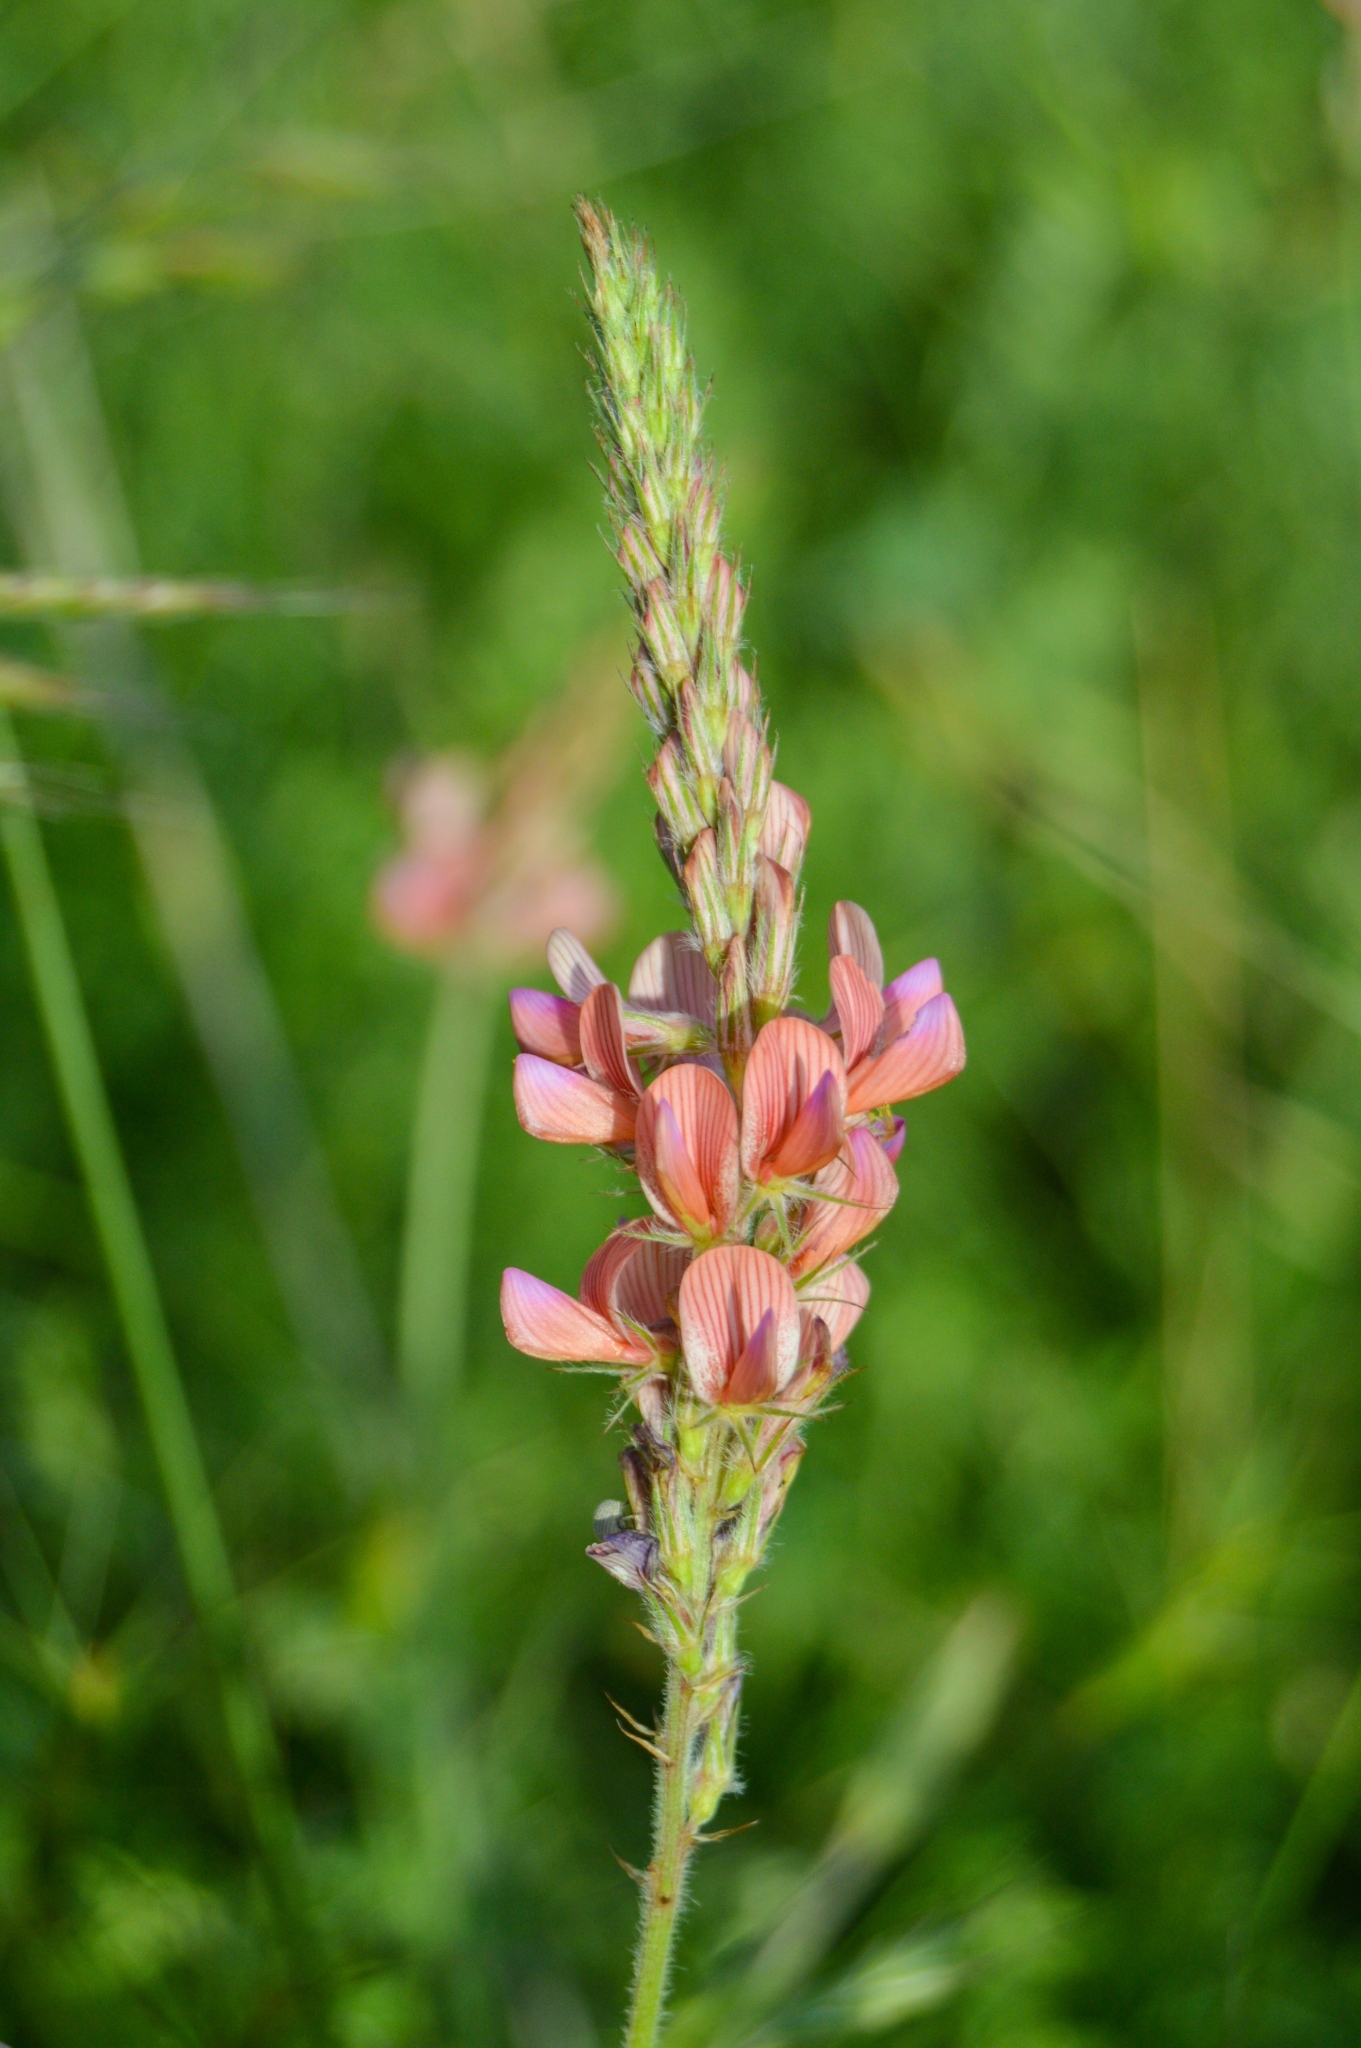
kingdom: Plantae
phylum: Tracheophyta
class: Magnoliopsida
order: Fabales
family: Fabaceae
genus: Onobrychis
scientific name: Onobrychis arenaria
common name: Sand esparcet
